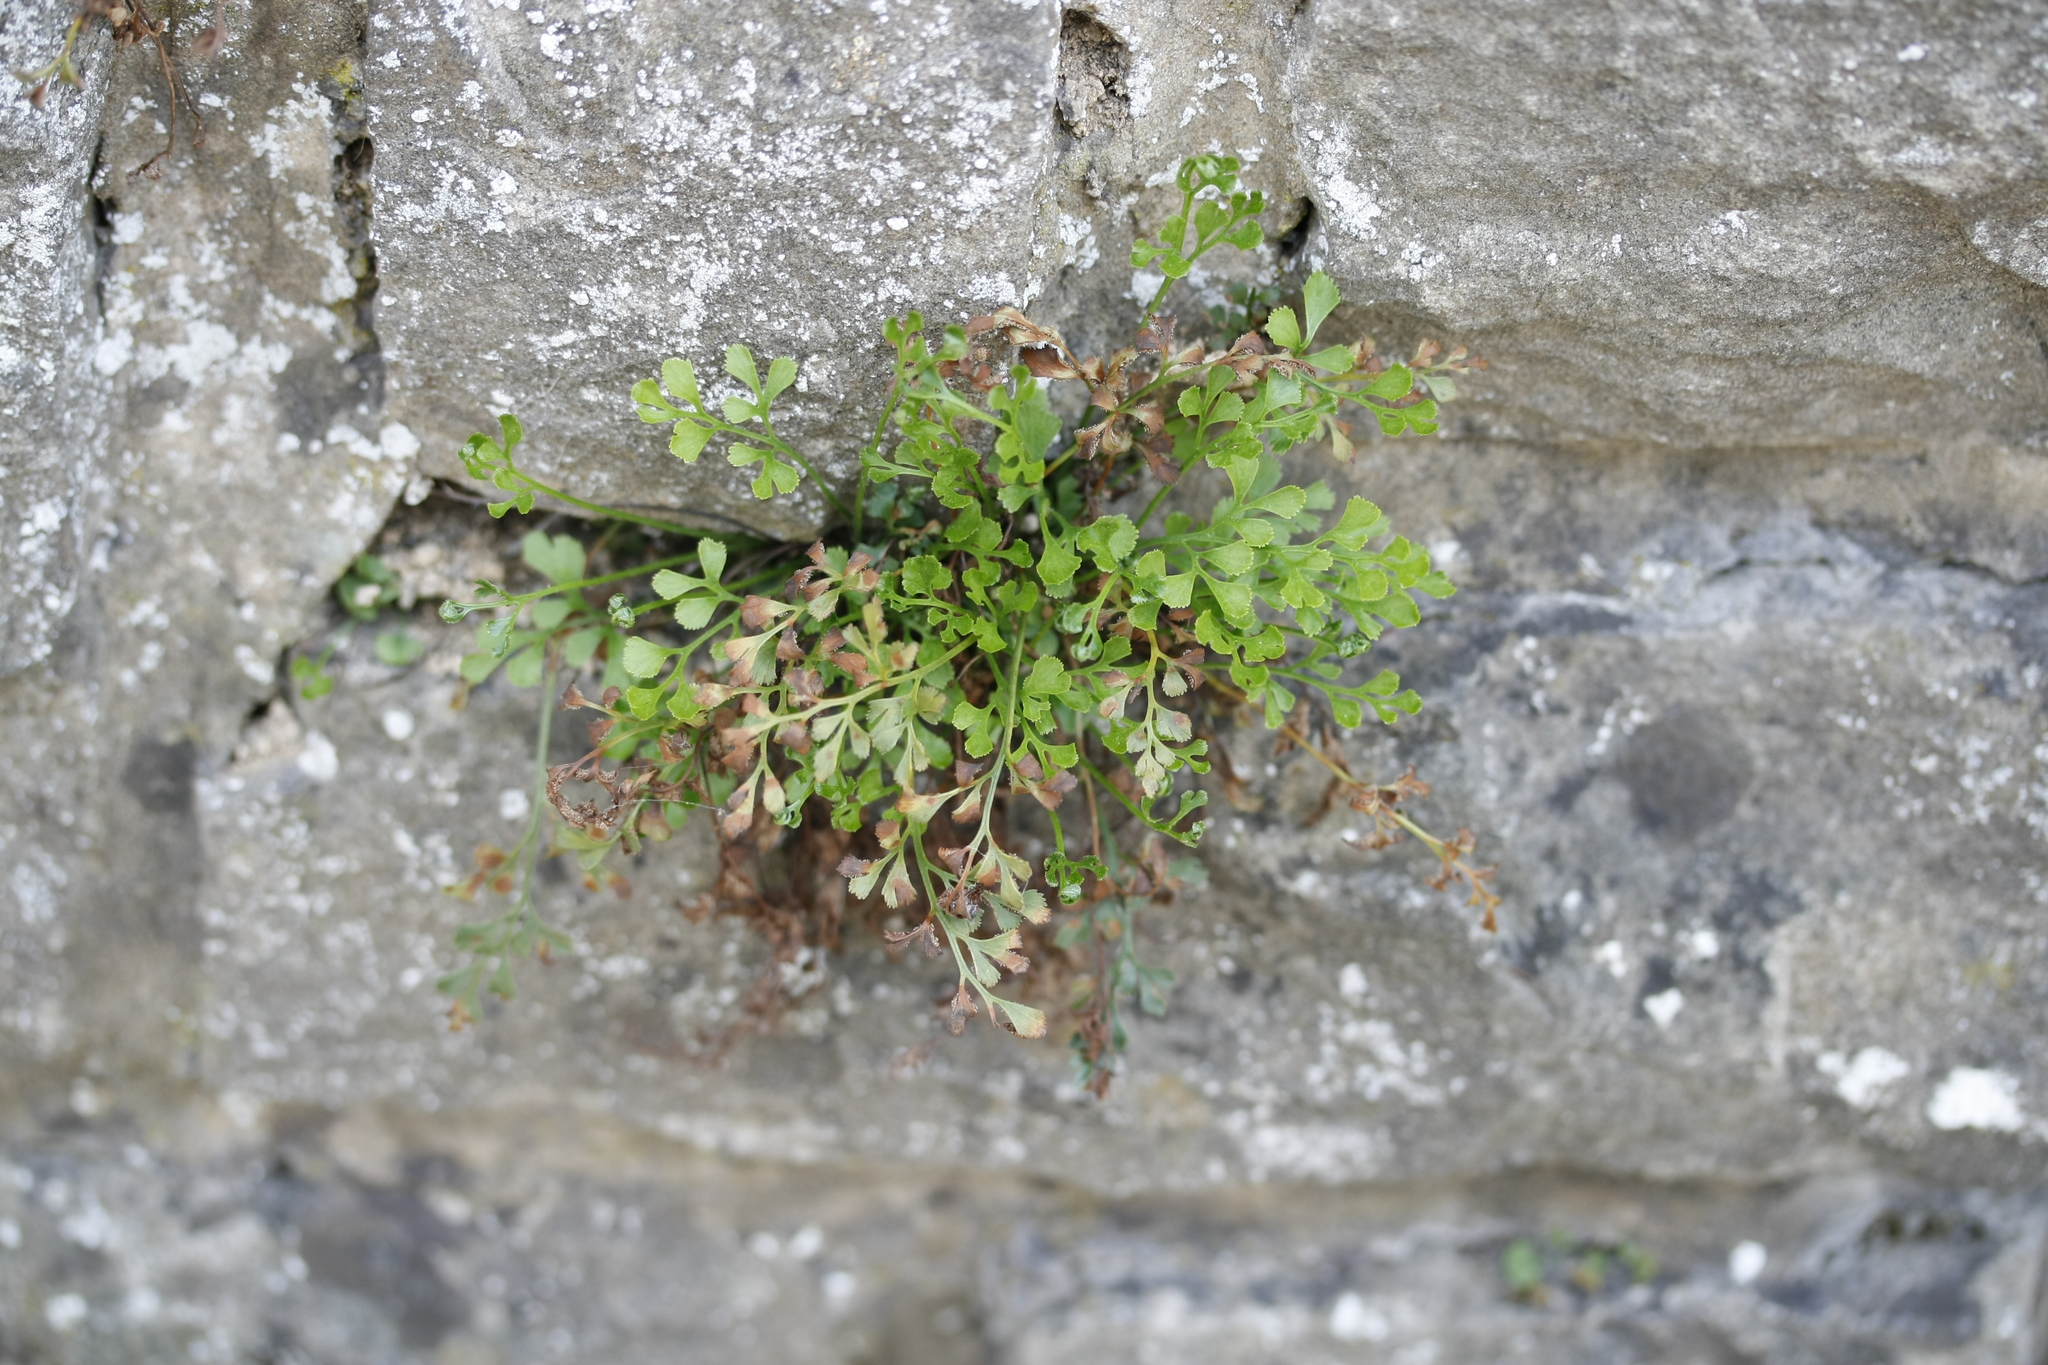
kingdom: Plantae
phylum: Tracheophyta
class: Polypodiopsida
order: Polypodiales
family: Aspleniaceae
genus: Asplenium
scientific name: Asplenium ruta-muraria
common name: Wall-rue
